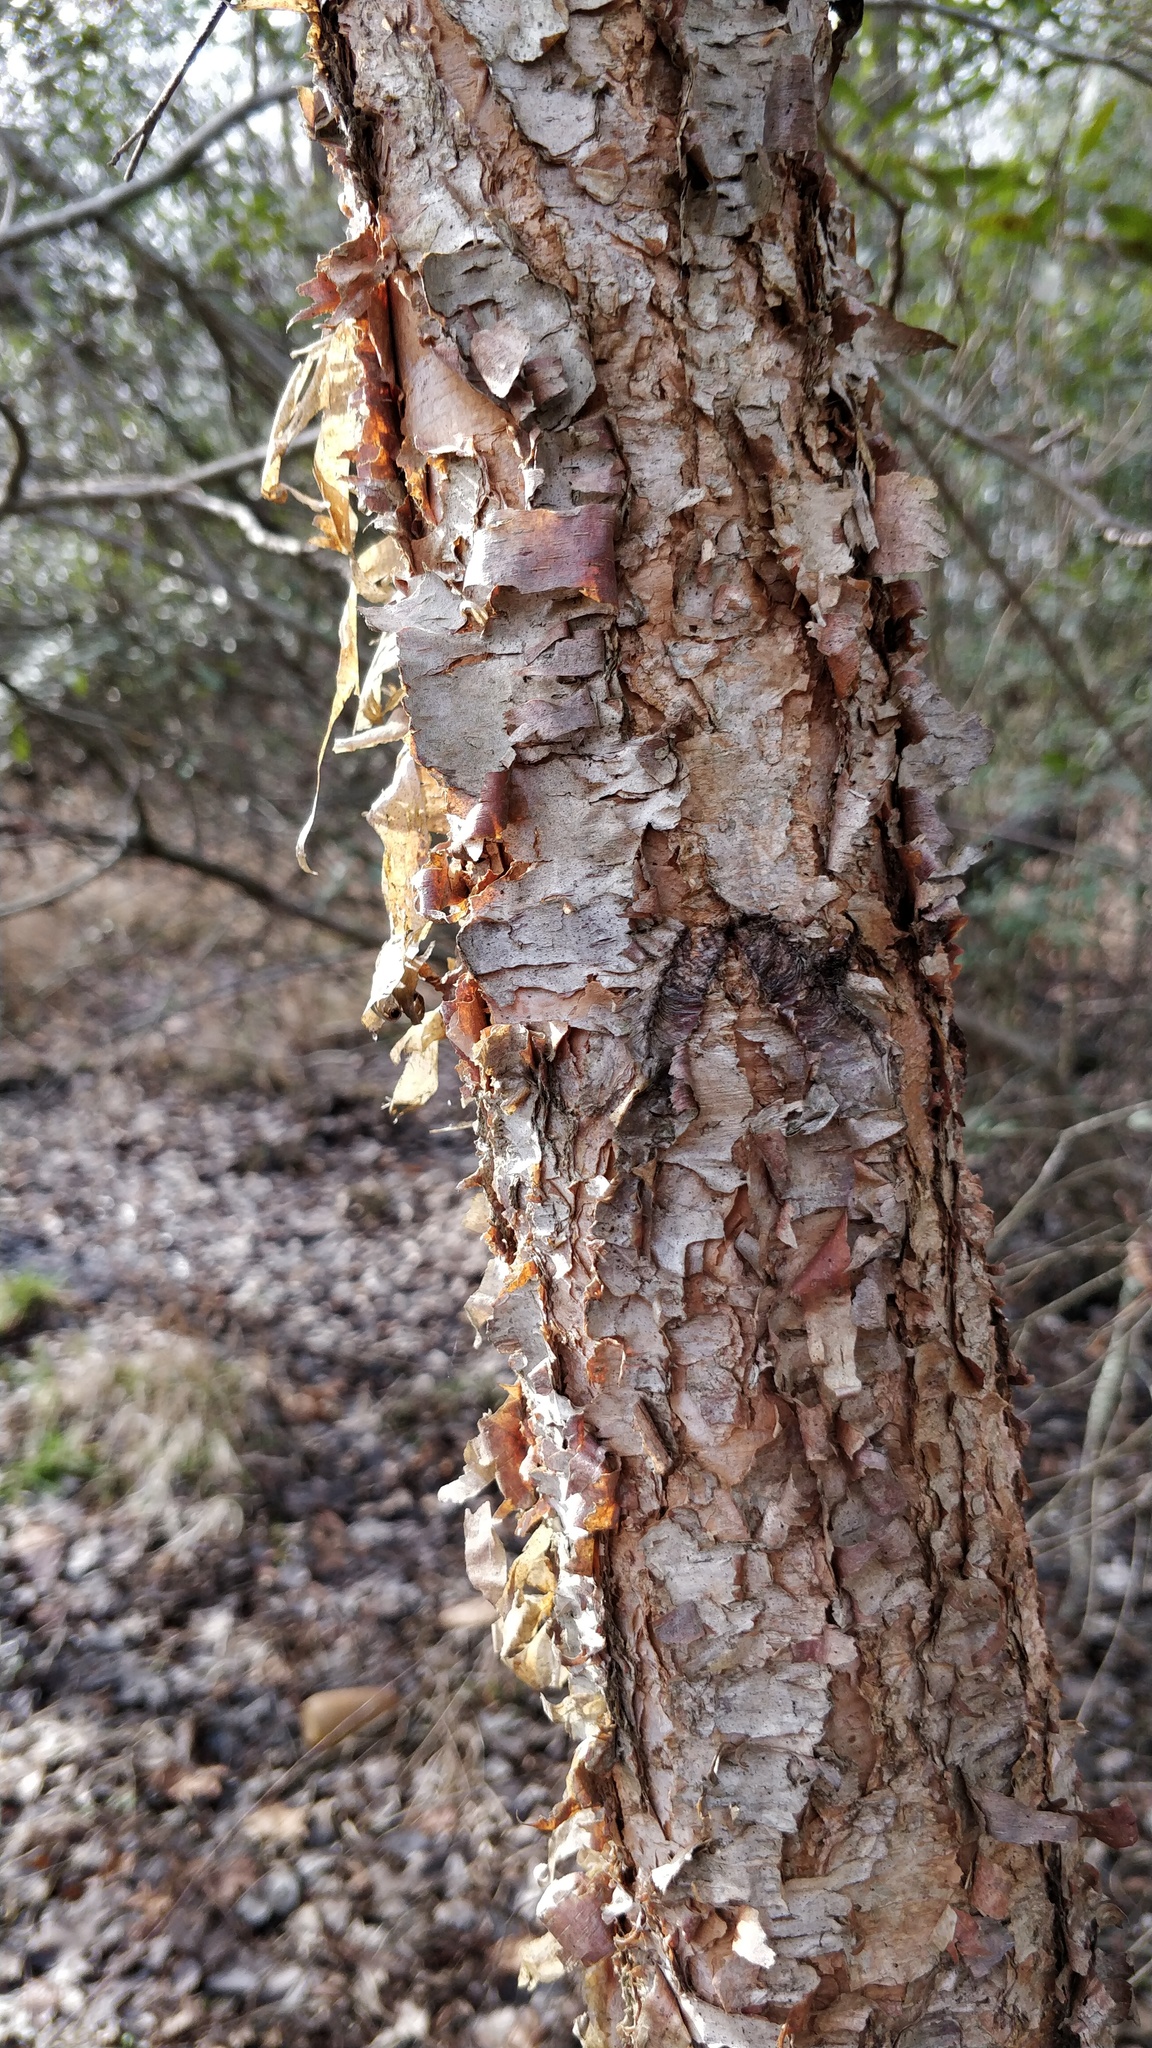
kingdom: Plantae
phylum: Tracheophyta
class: Magnoliopsida
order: Fagales
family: Betulaceae
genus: Betula
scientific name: Betula nigra
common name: Black birch
